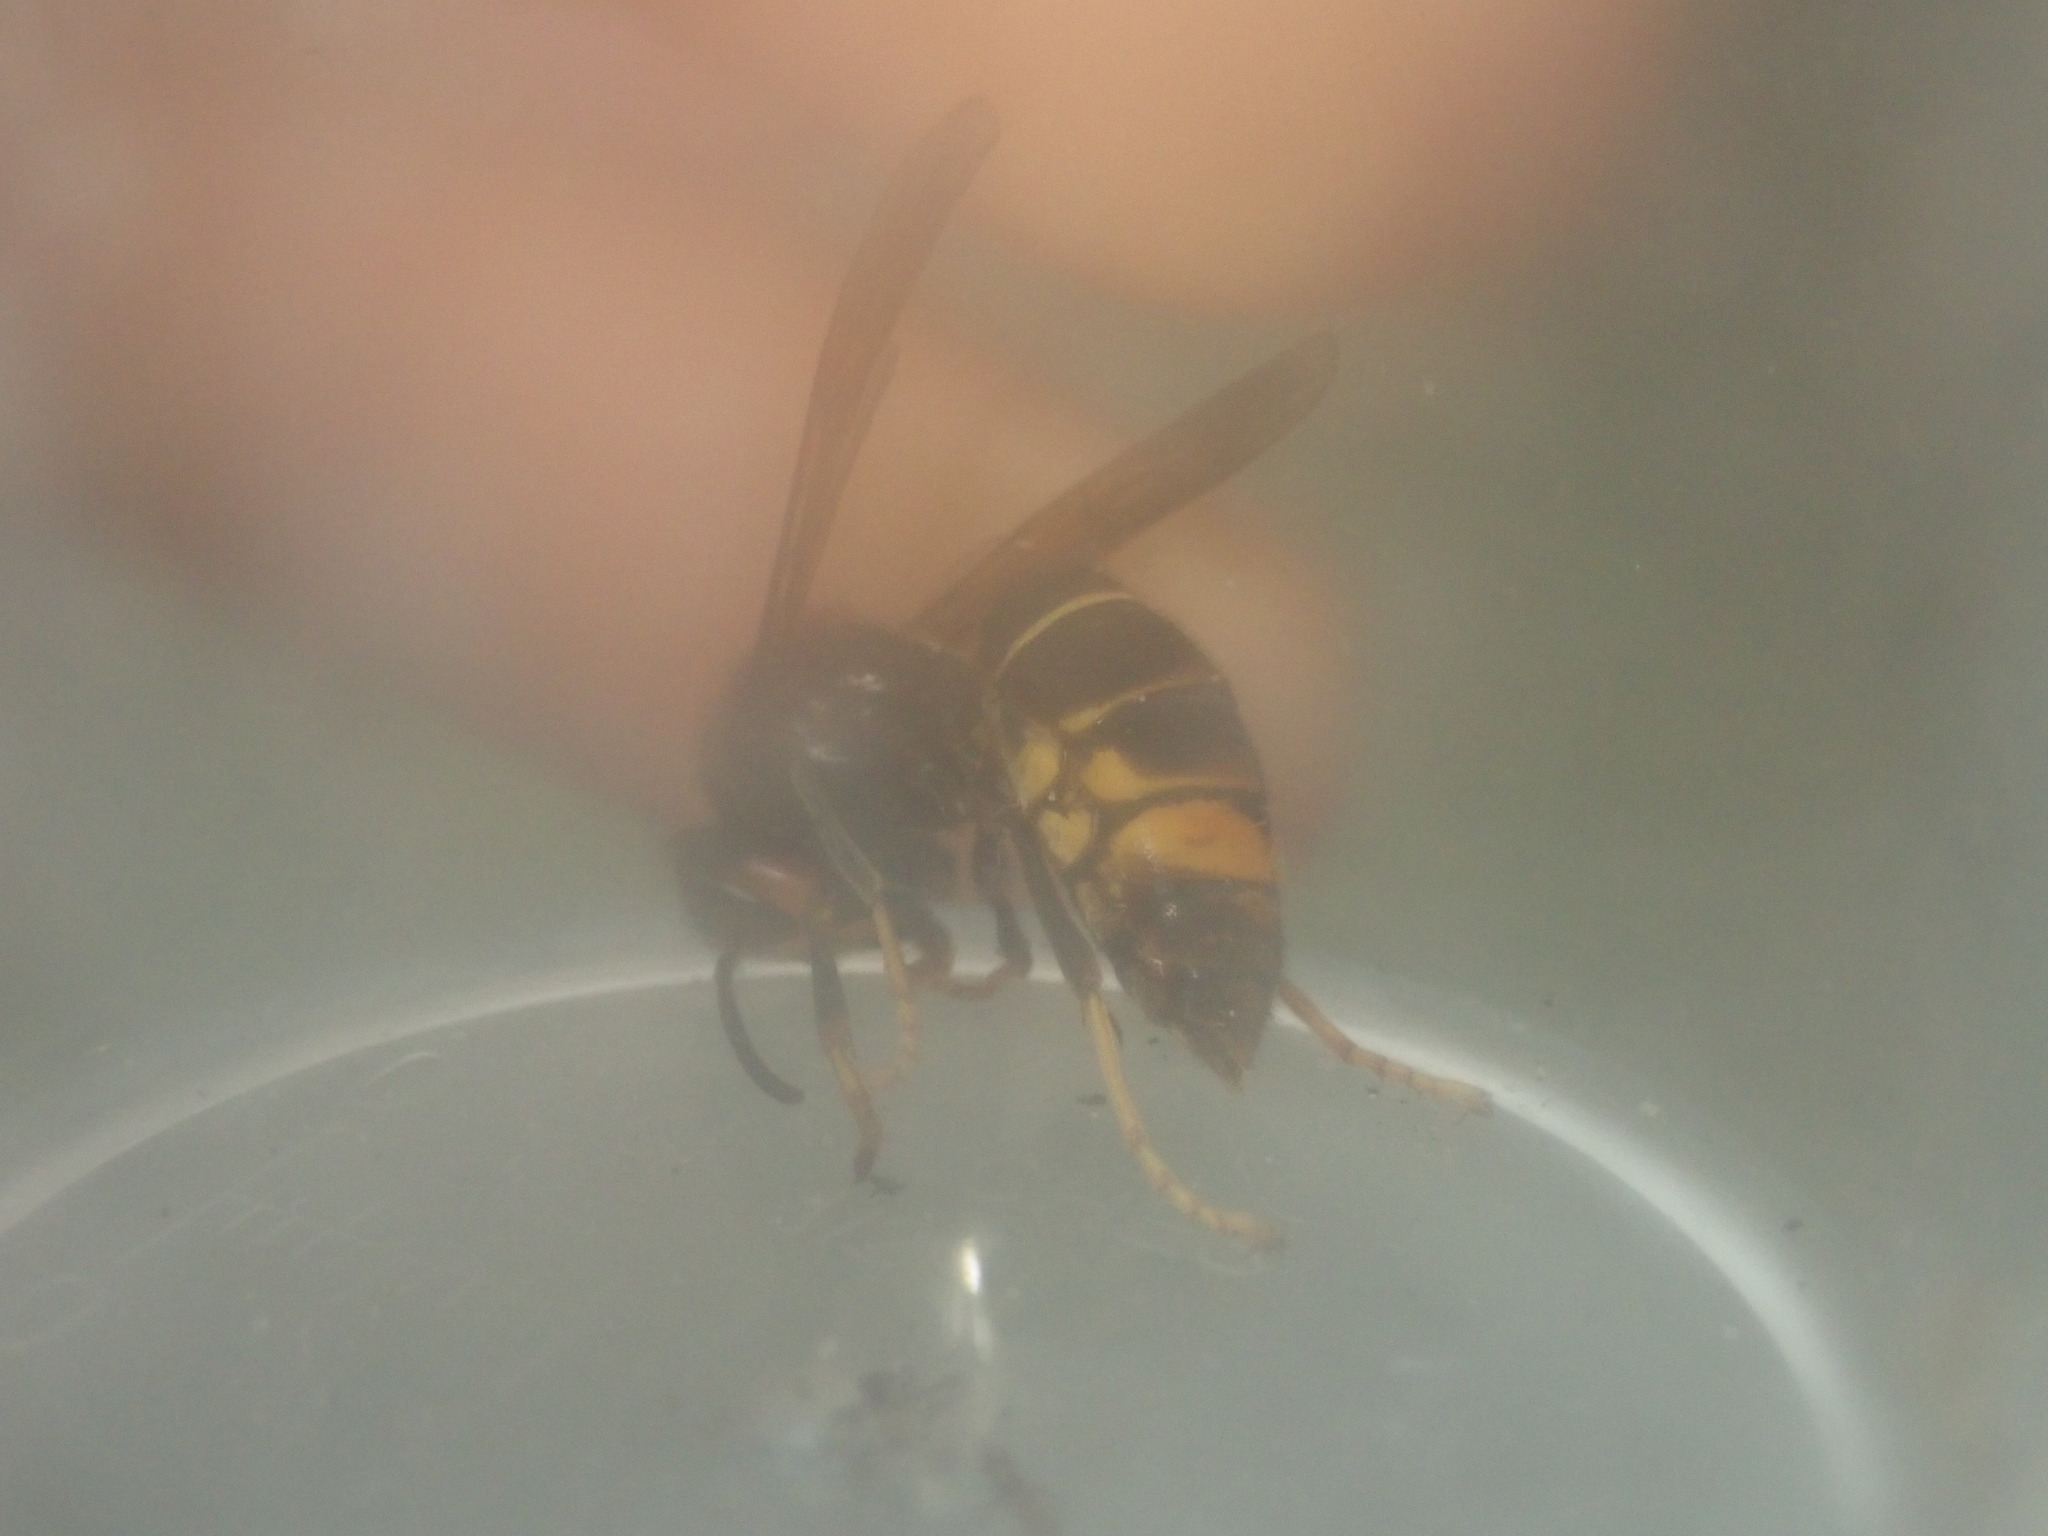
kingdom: Animalia
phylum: Arthropoda
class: Insecta
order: Hymenoptera
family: Vespidae
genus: Vespa
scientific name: Vespa velutina
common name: Asian hornet
